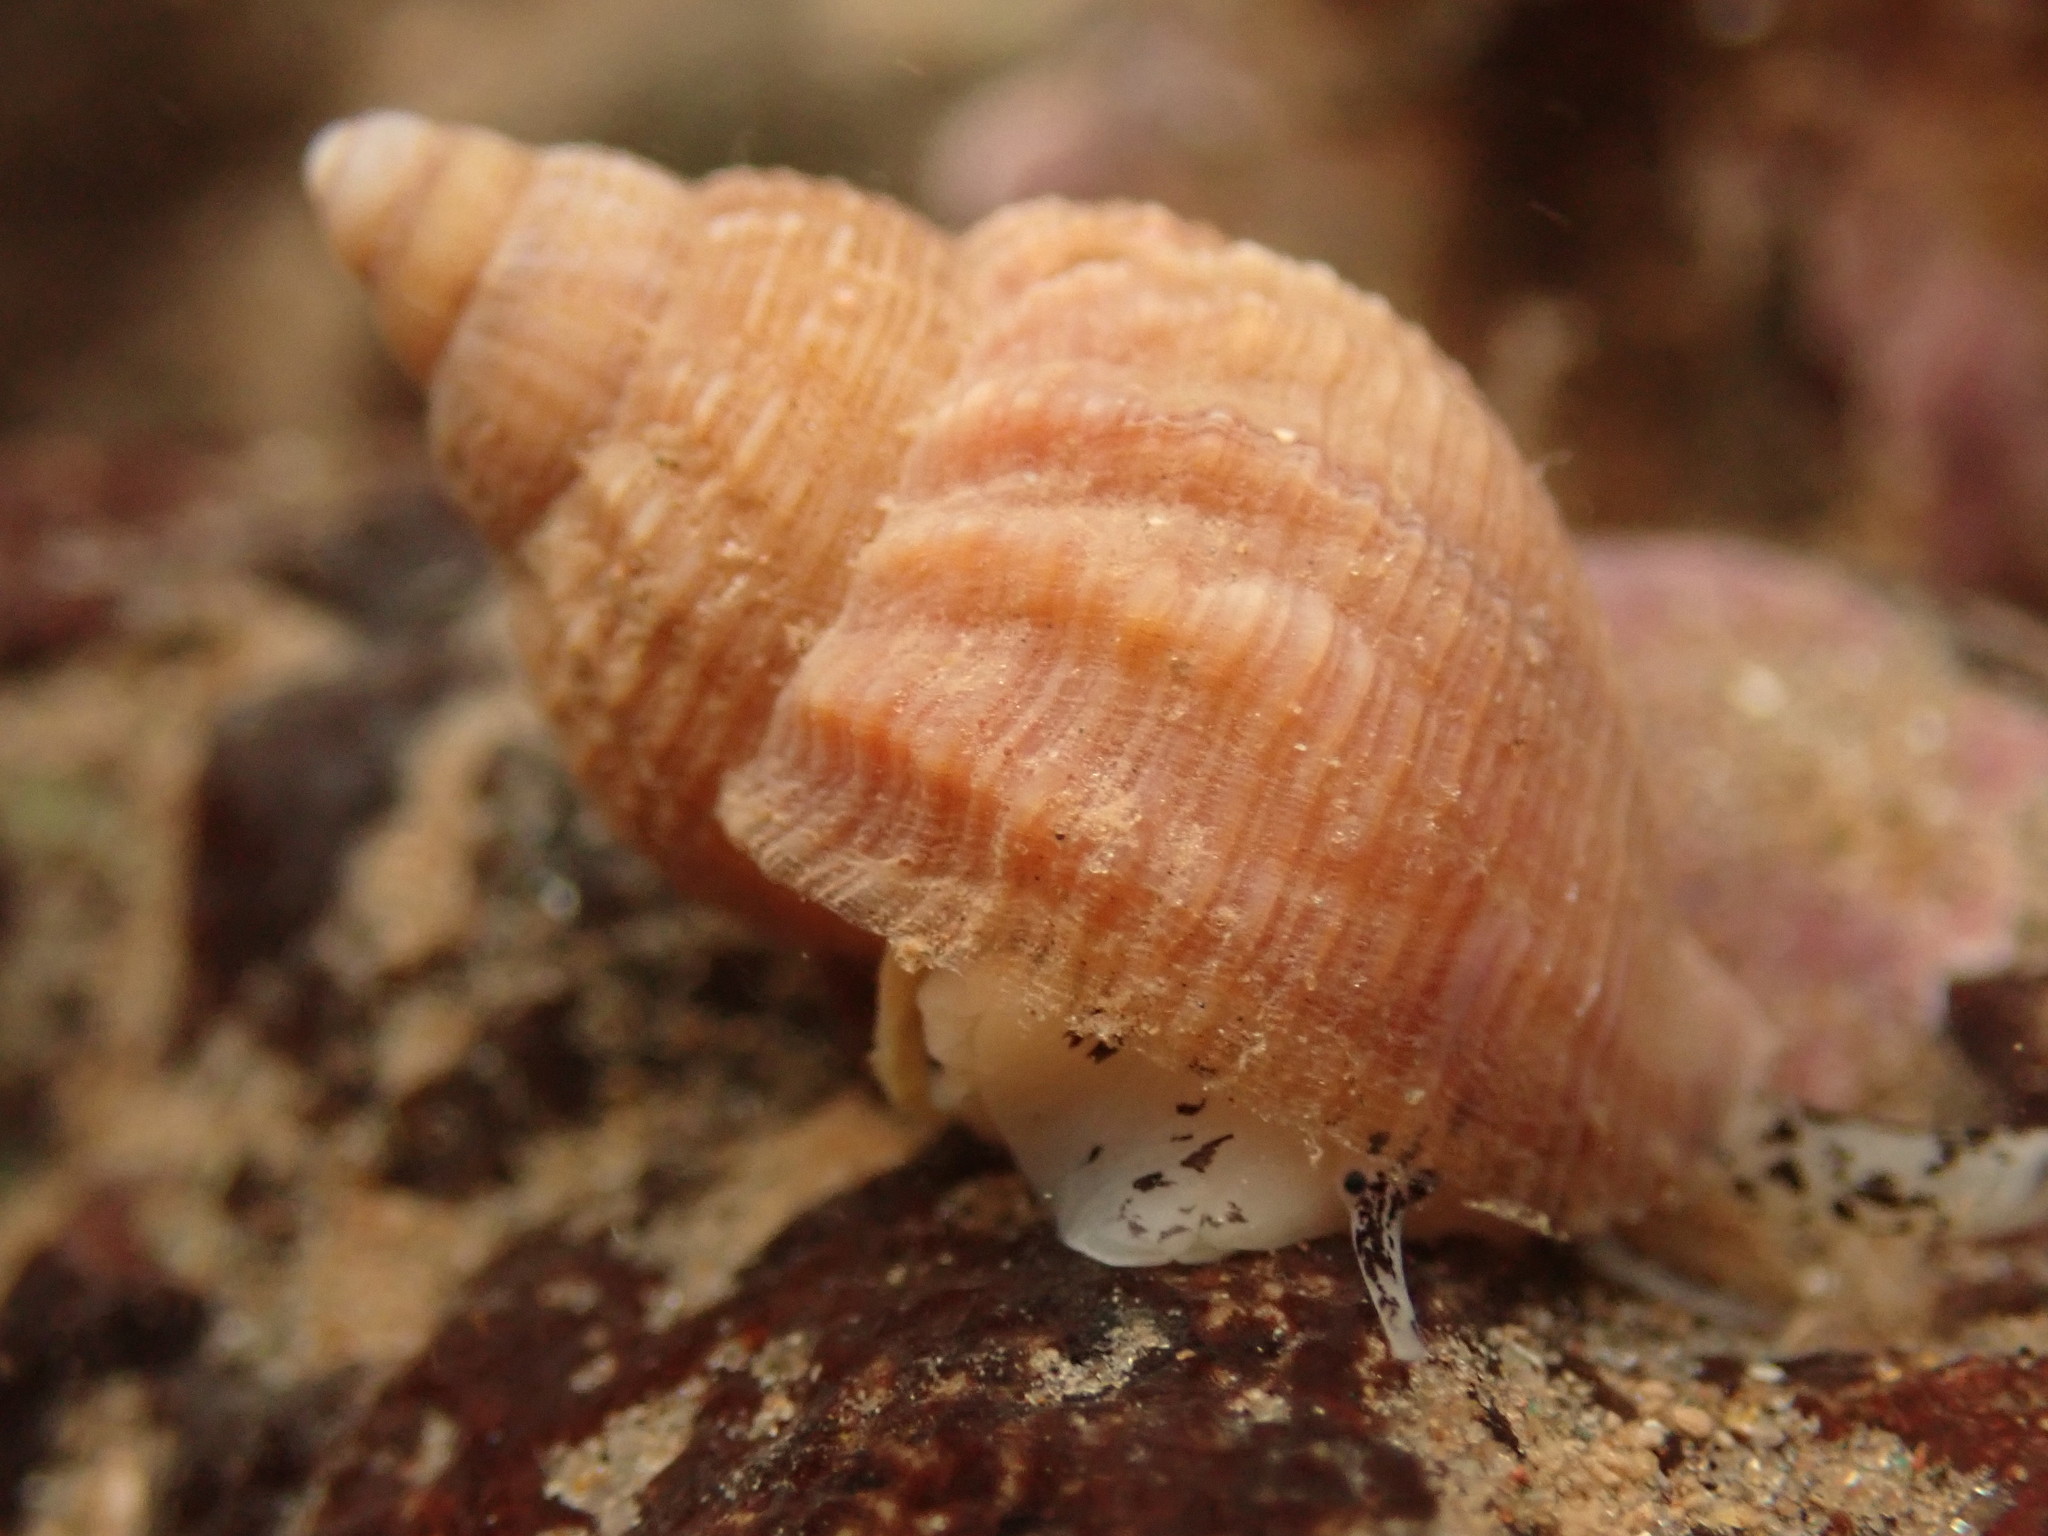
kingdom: Animalia
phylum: Mollusca
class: Gastropoda
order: Neogastropoda
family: Buccinidae
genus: Buccinum
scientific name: Buccinum undatum
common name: Common whelk
